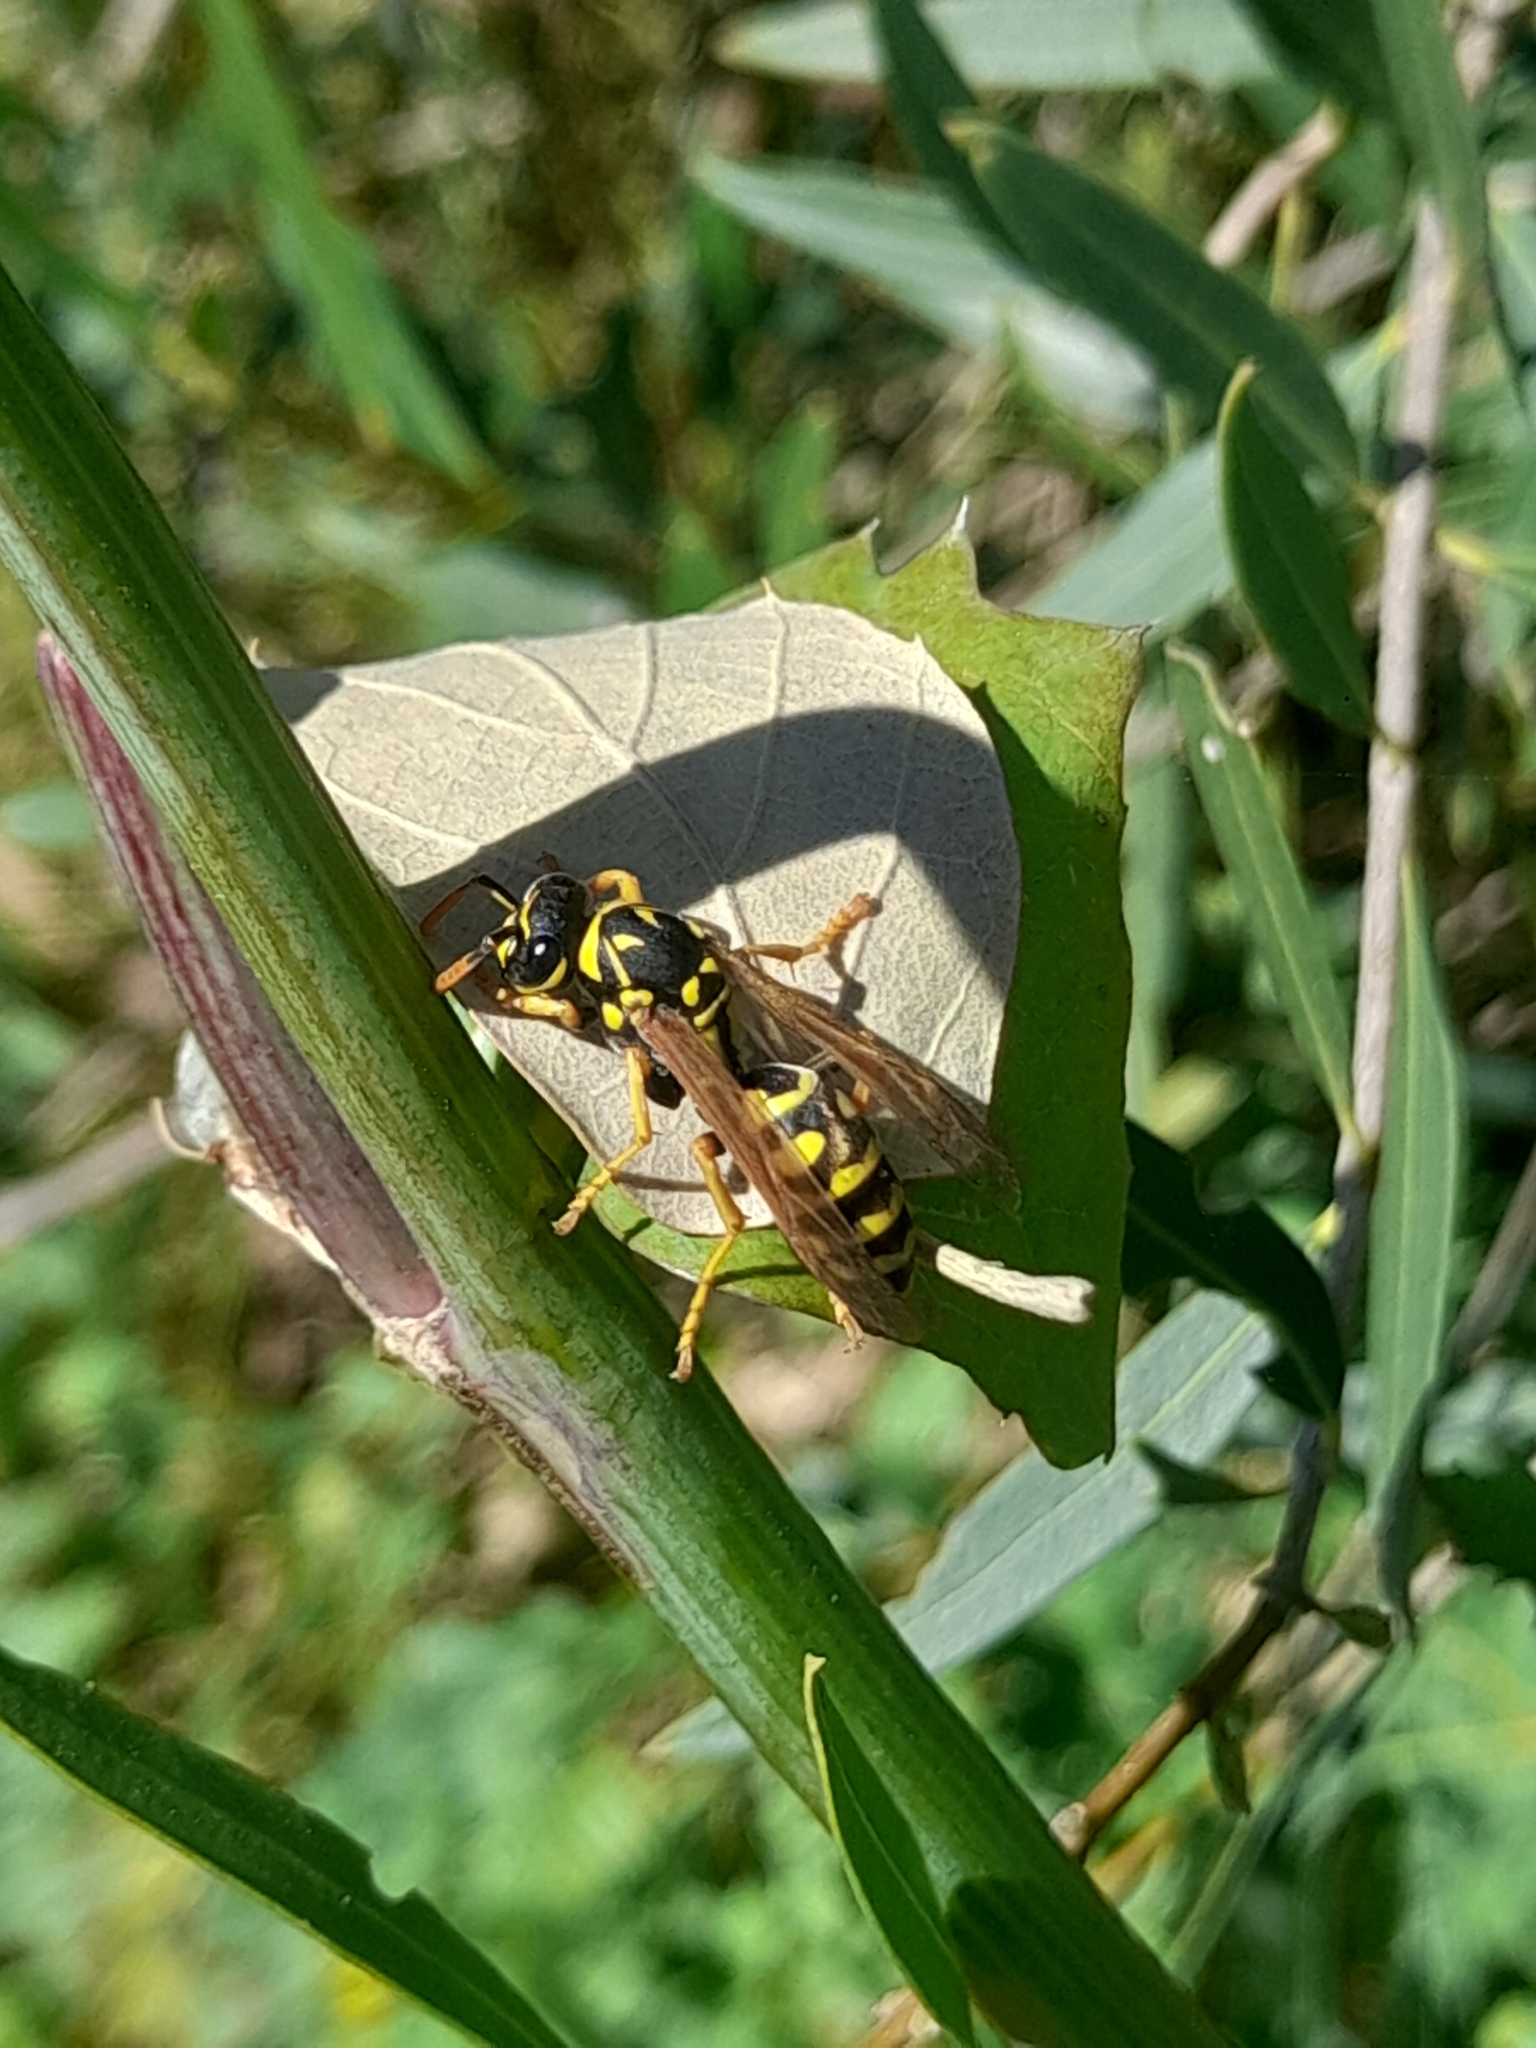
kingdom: Animalia
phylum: Arthropoda
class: Insecta
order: Hymenoptera
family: Eumenidae
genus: Polistes
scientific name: Polistes dominula
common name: Paper wasp
